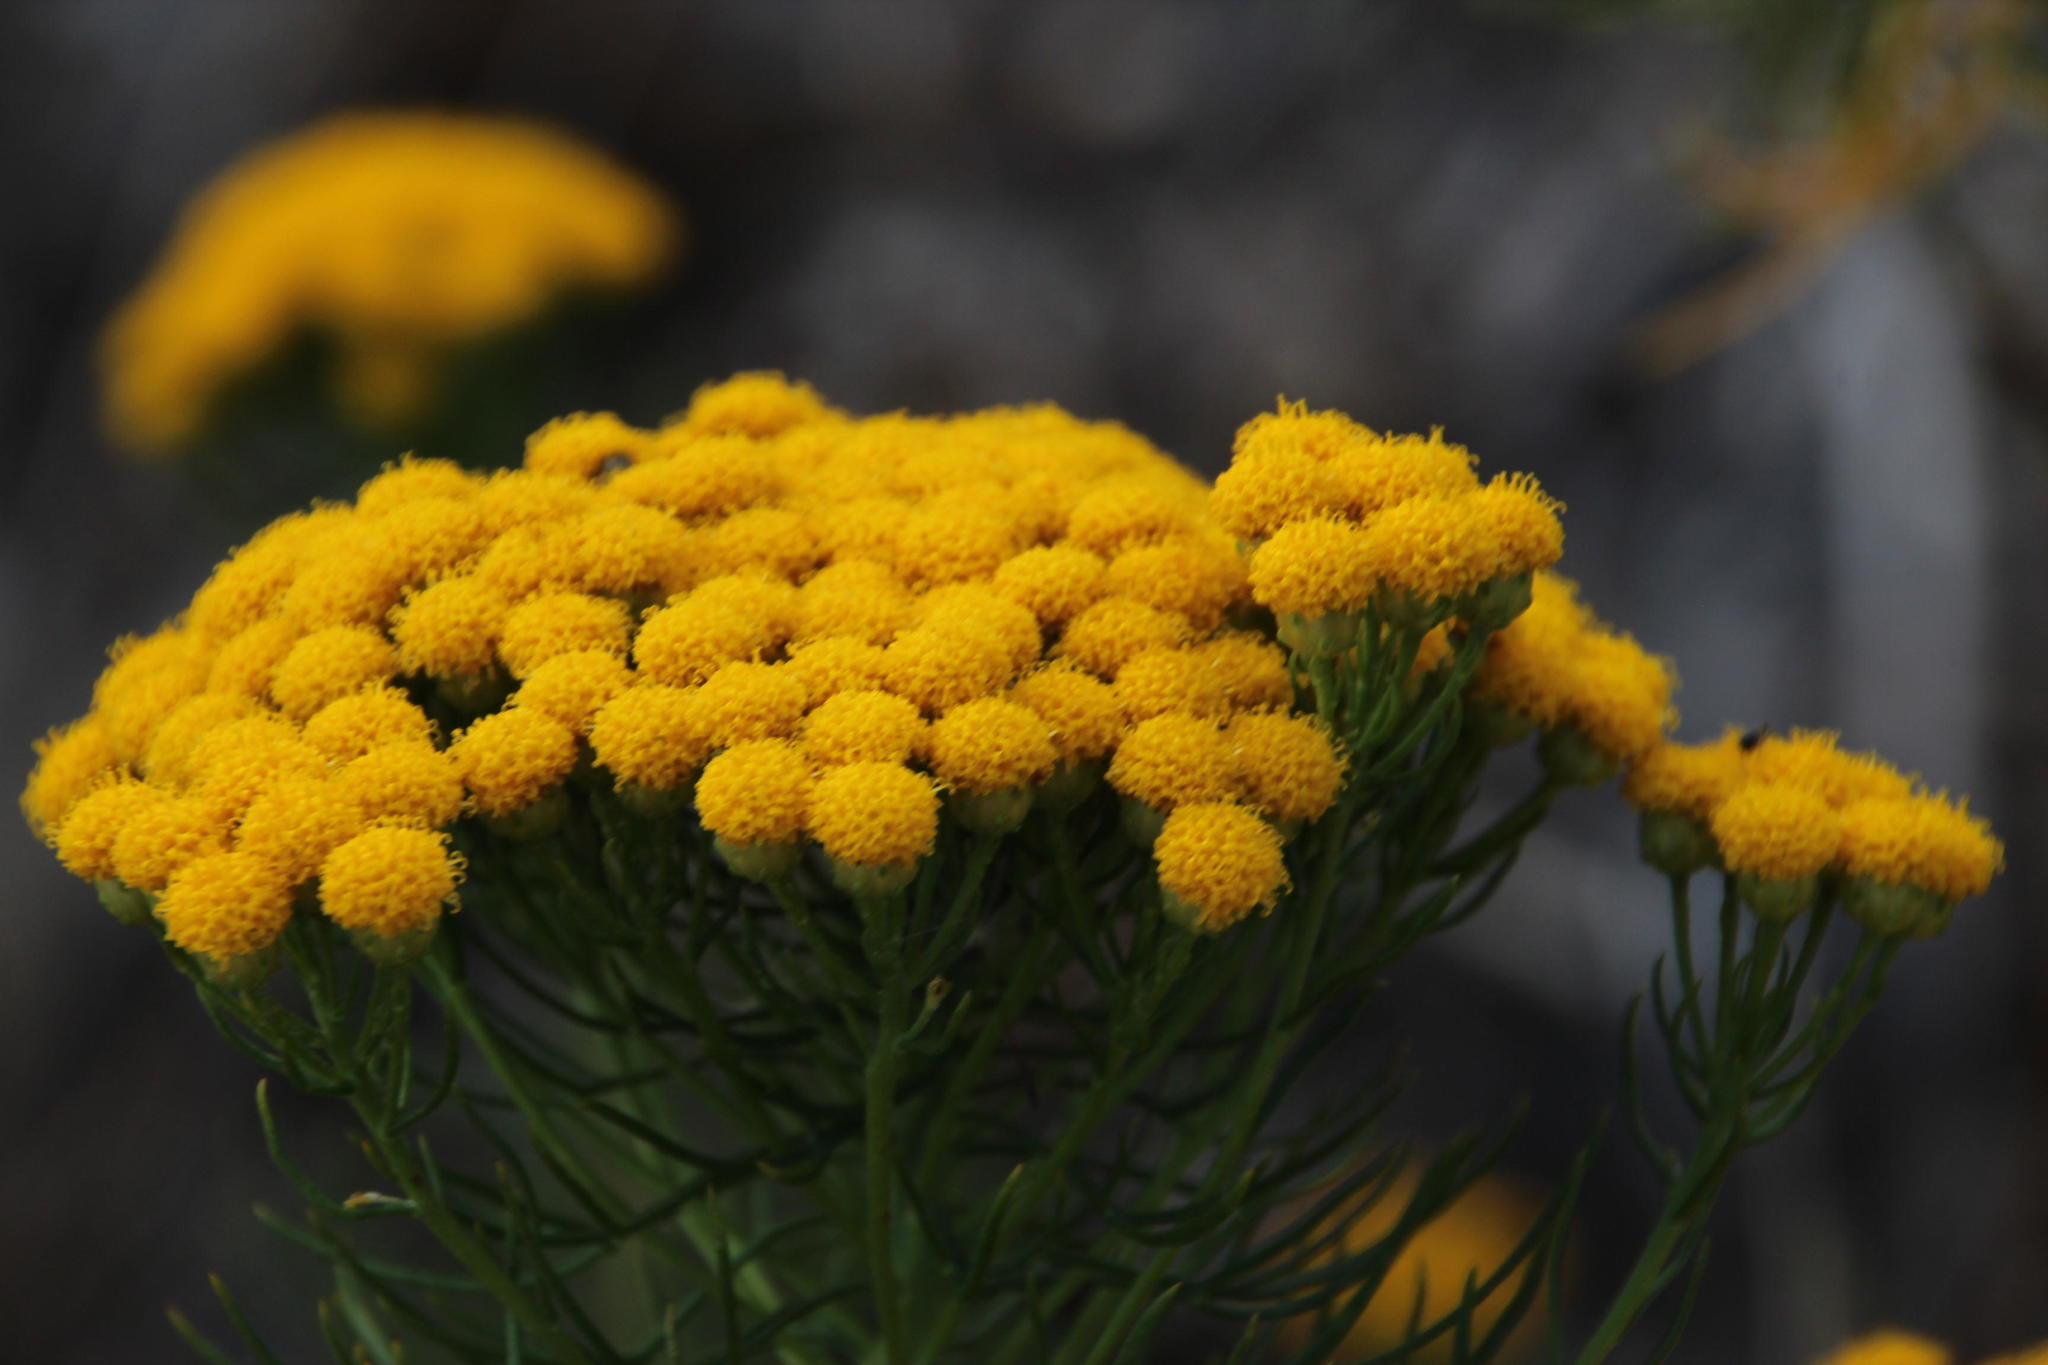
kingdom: Plantae
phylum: Tracheophyta
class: Magnoliopsida
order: Asterales
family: Asteraceae
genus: Athanasia
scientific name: Athanasia crithmifolia
